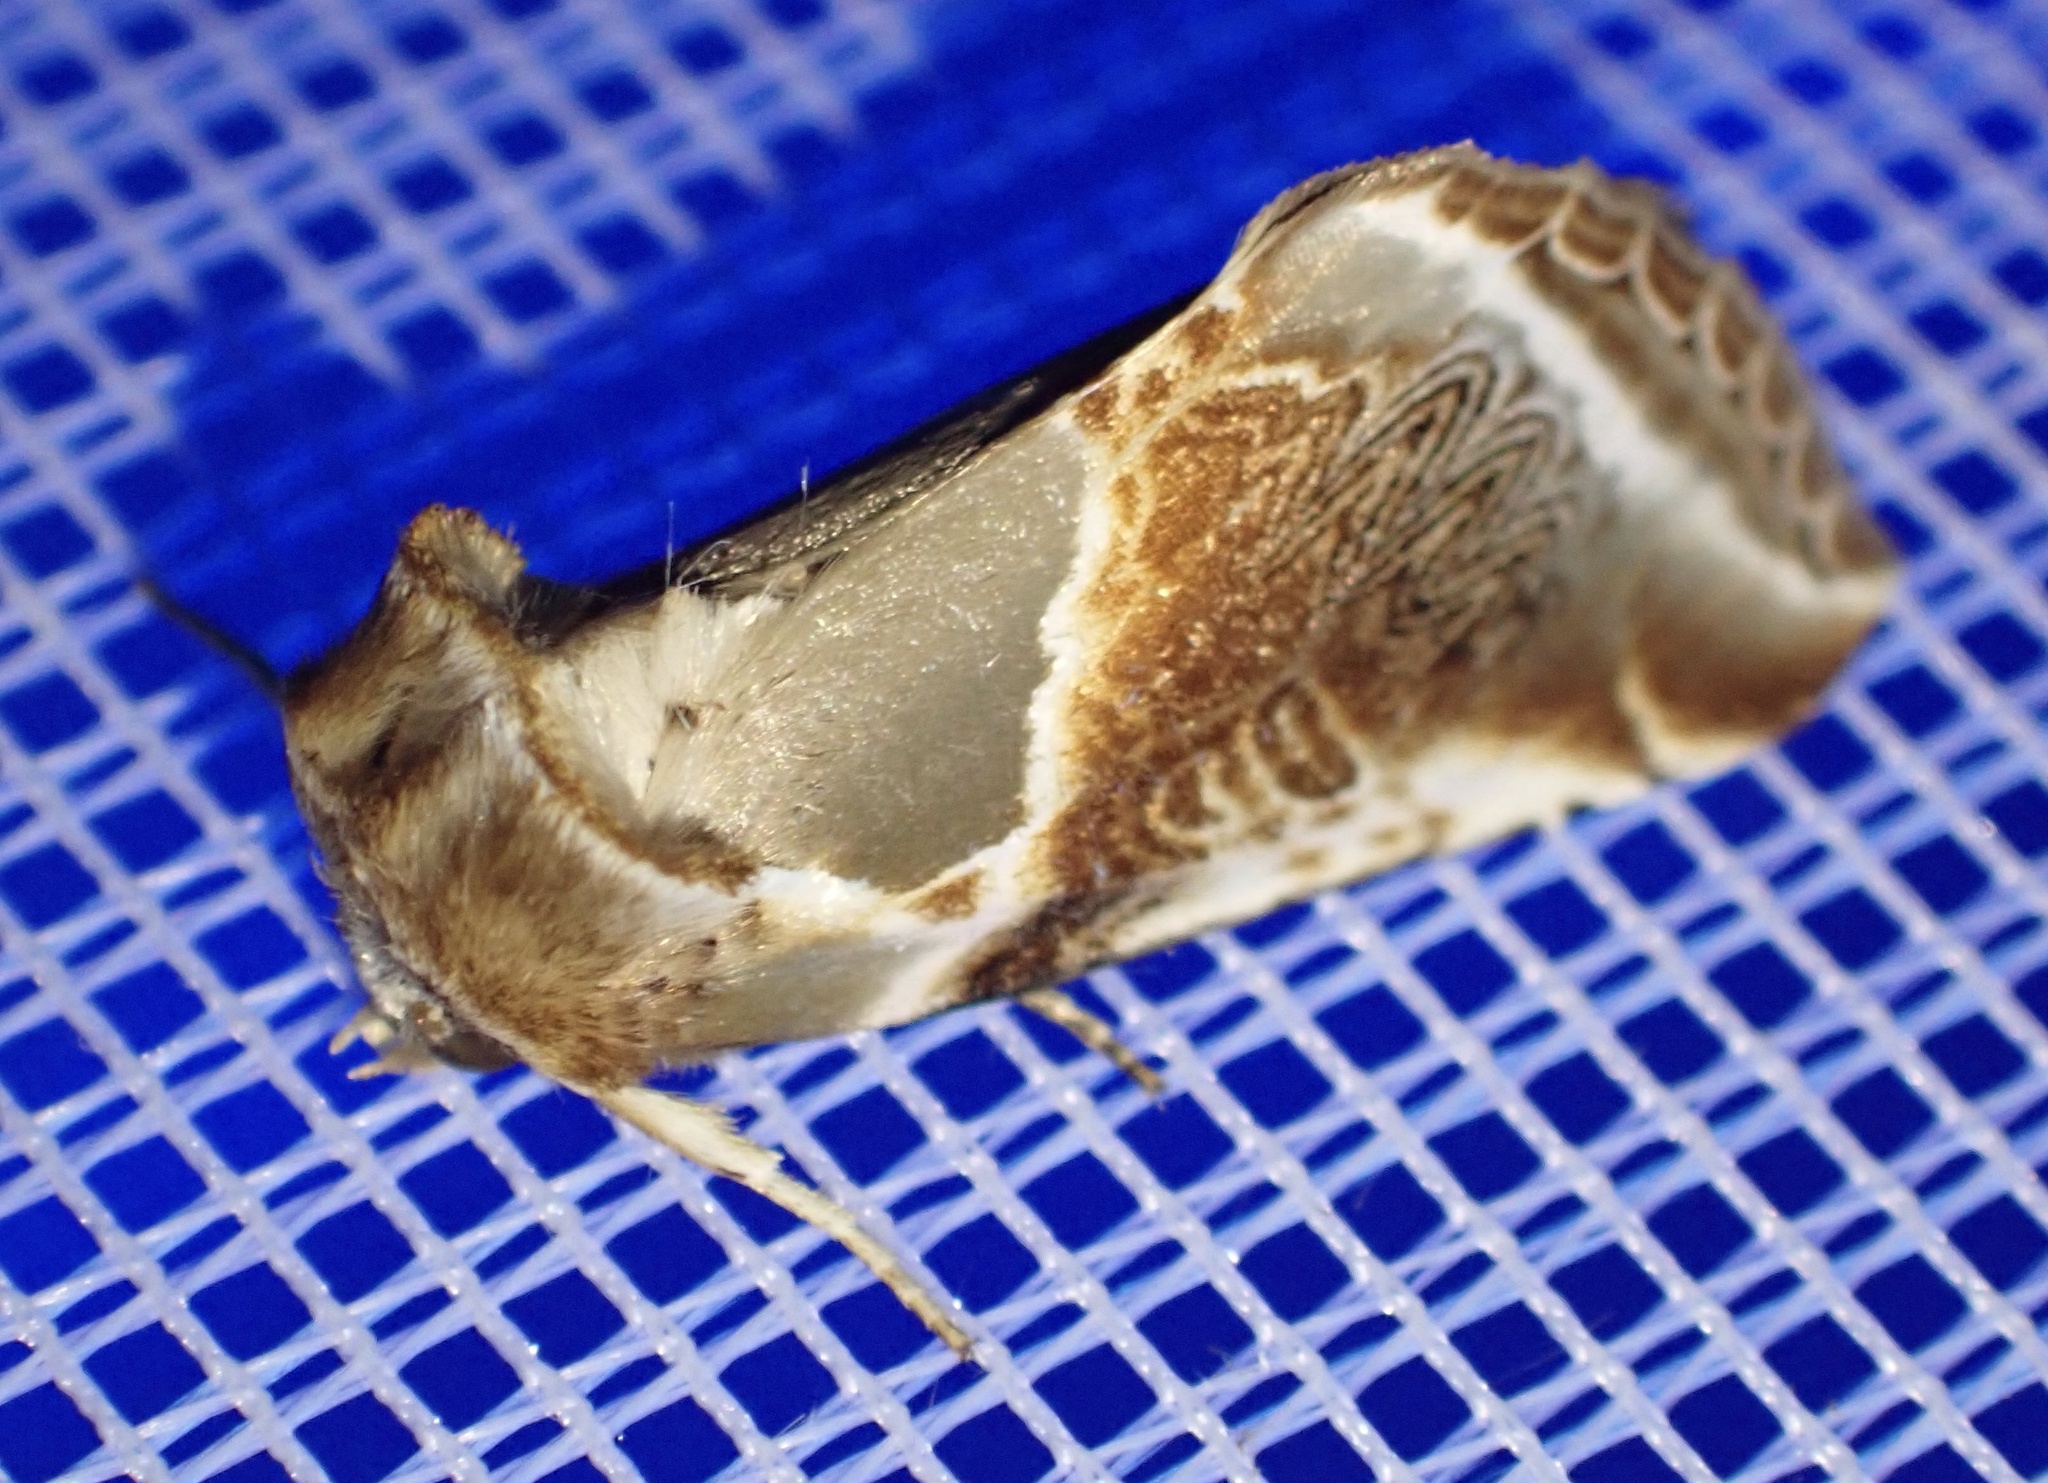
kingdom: Animalia
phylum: Arthropoda
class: Insecta
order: Lepidoptera
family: Drepanidae
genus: Habrosyne
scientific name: Habrosyne pyritoides
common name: Buff arches
